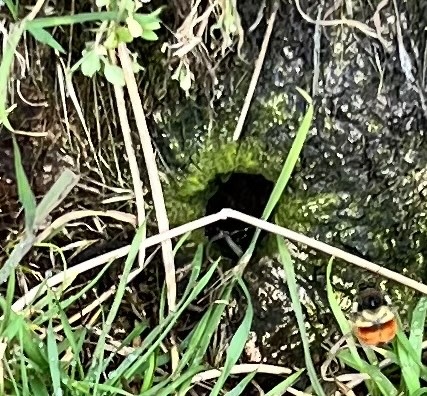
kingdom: Animalia
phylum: Arthropoda
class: Insecta
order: Hymenoptera
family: Apidae
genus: Bombus
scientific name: Bombus melanopygus
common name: Black tail bumble bee
